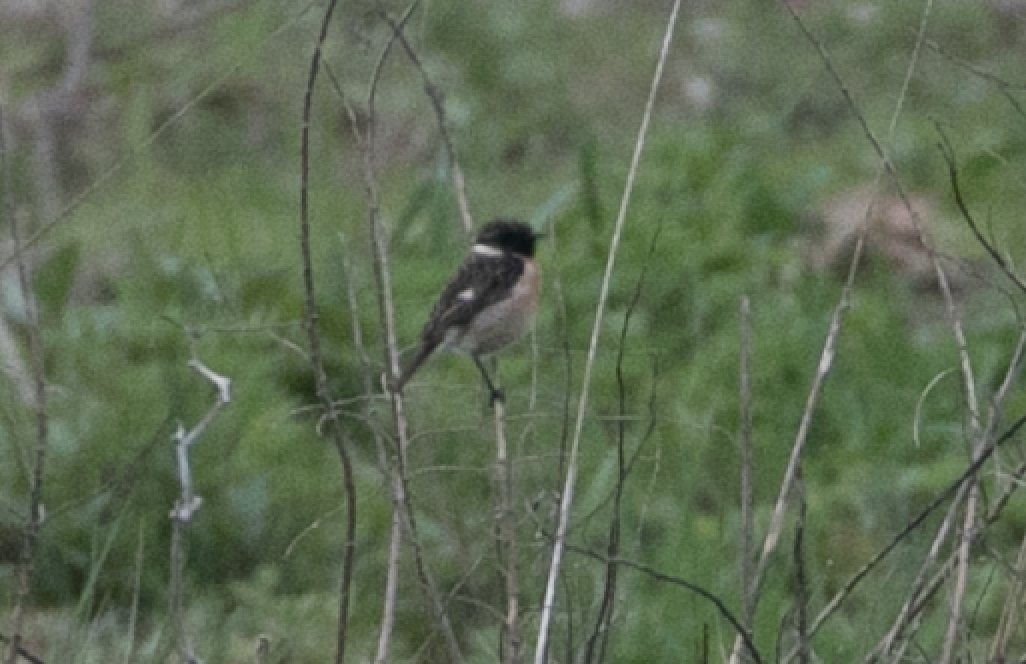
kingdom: Animalia
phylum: Chordata
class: Aves
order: Passeriformes
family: Muscicapidae
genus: Saxicola
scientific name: Saxicola rubicola
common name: European stonechat
